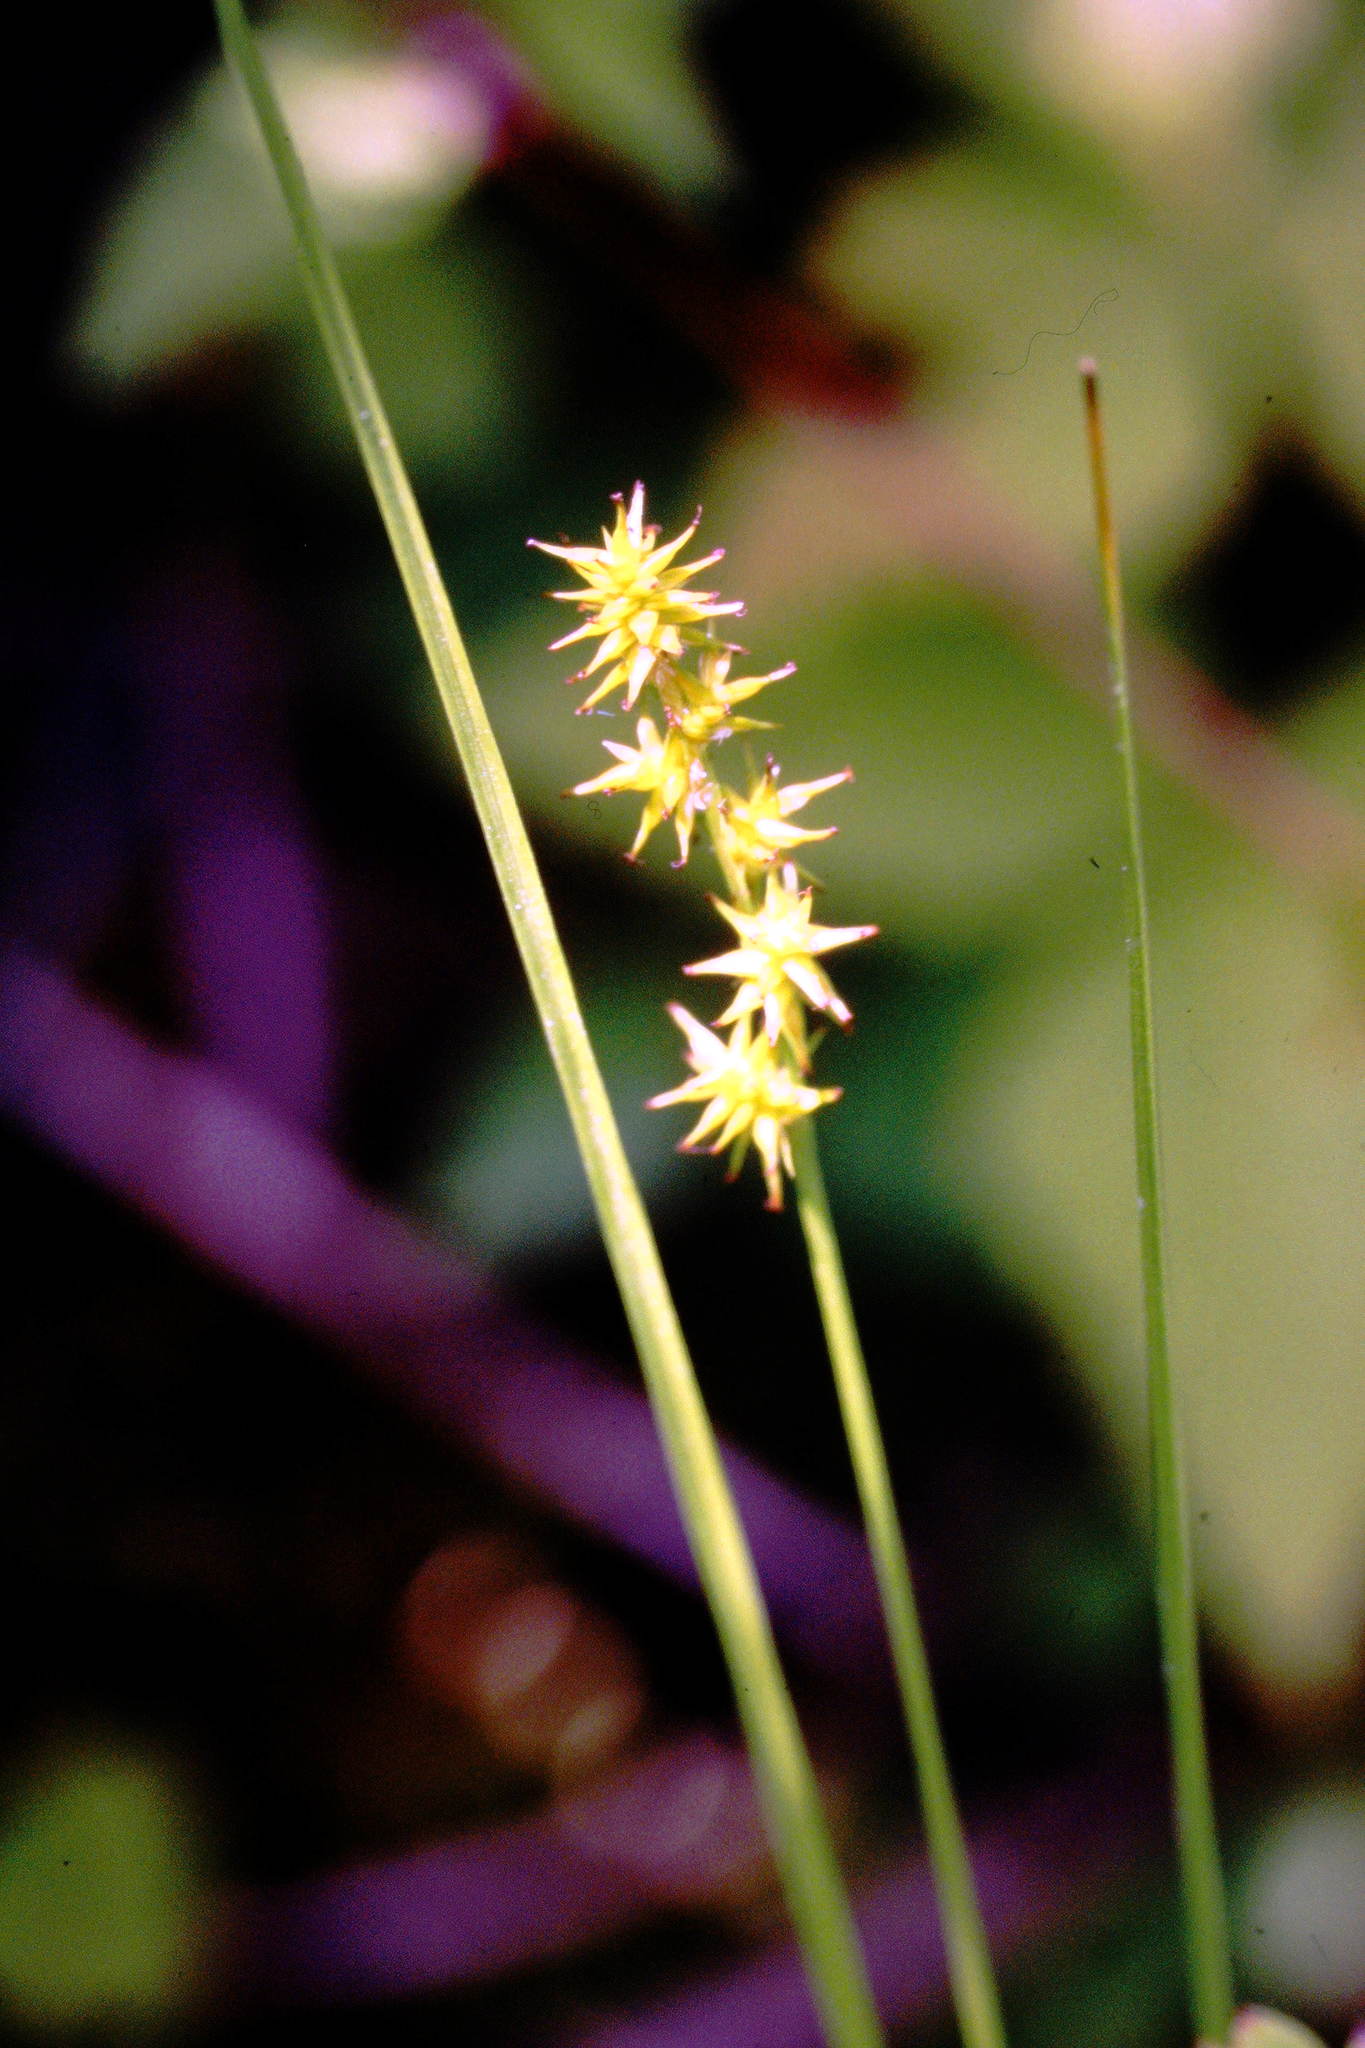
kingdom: Plantae
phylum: Tracheophyta
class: Liliopsida
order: Poales
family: Cyperaceae
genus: Carex
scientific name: Carex echinata
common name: Star sedge
